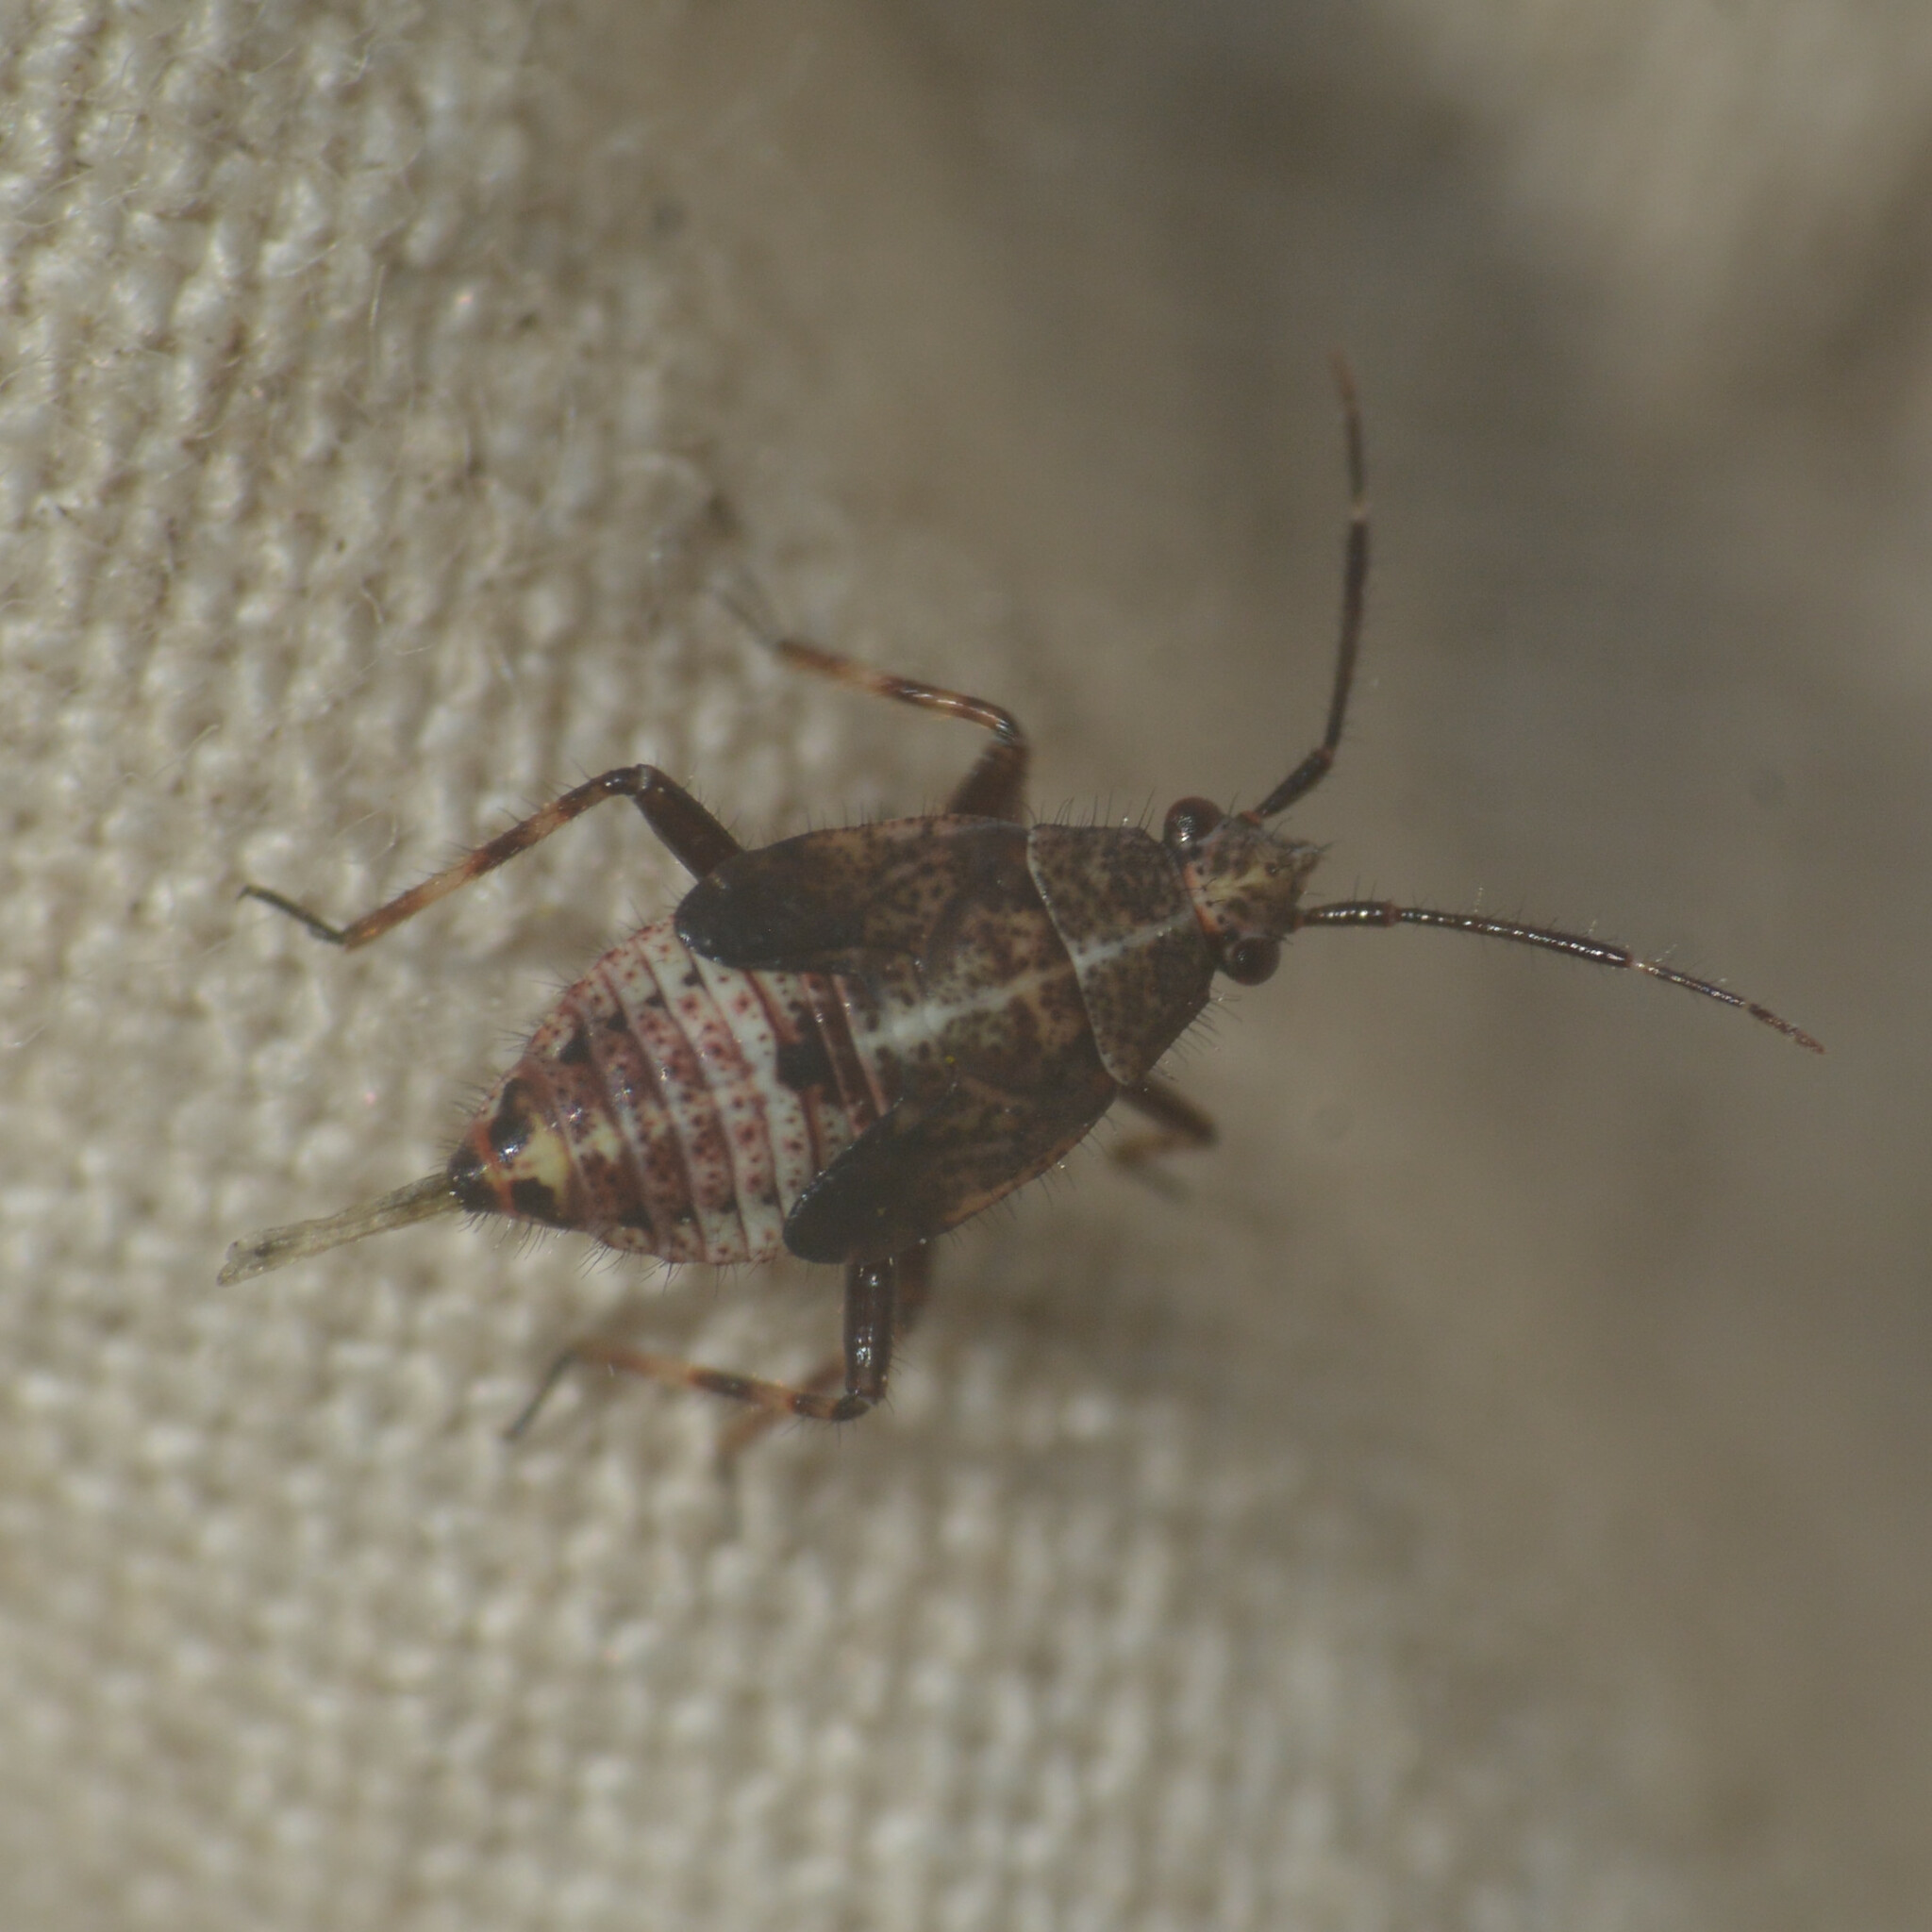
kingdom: Animalia
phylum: Arthropoda
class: Insecta
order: Hemiptera
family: Miridae
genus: Deraeocoris
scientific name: Deraeocoris flavilinea
